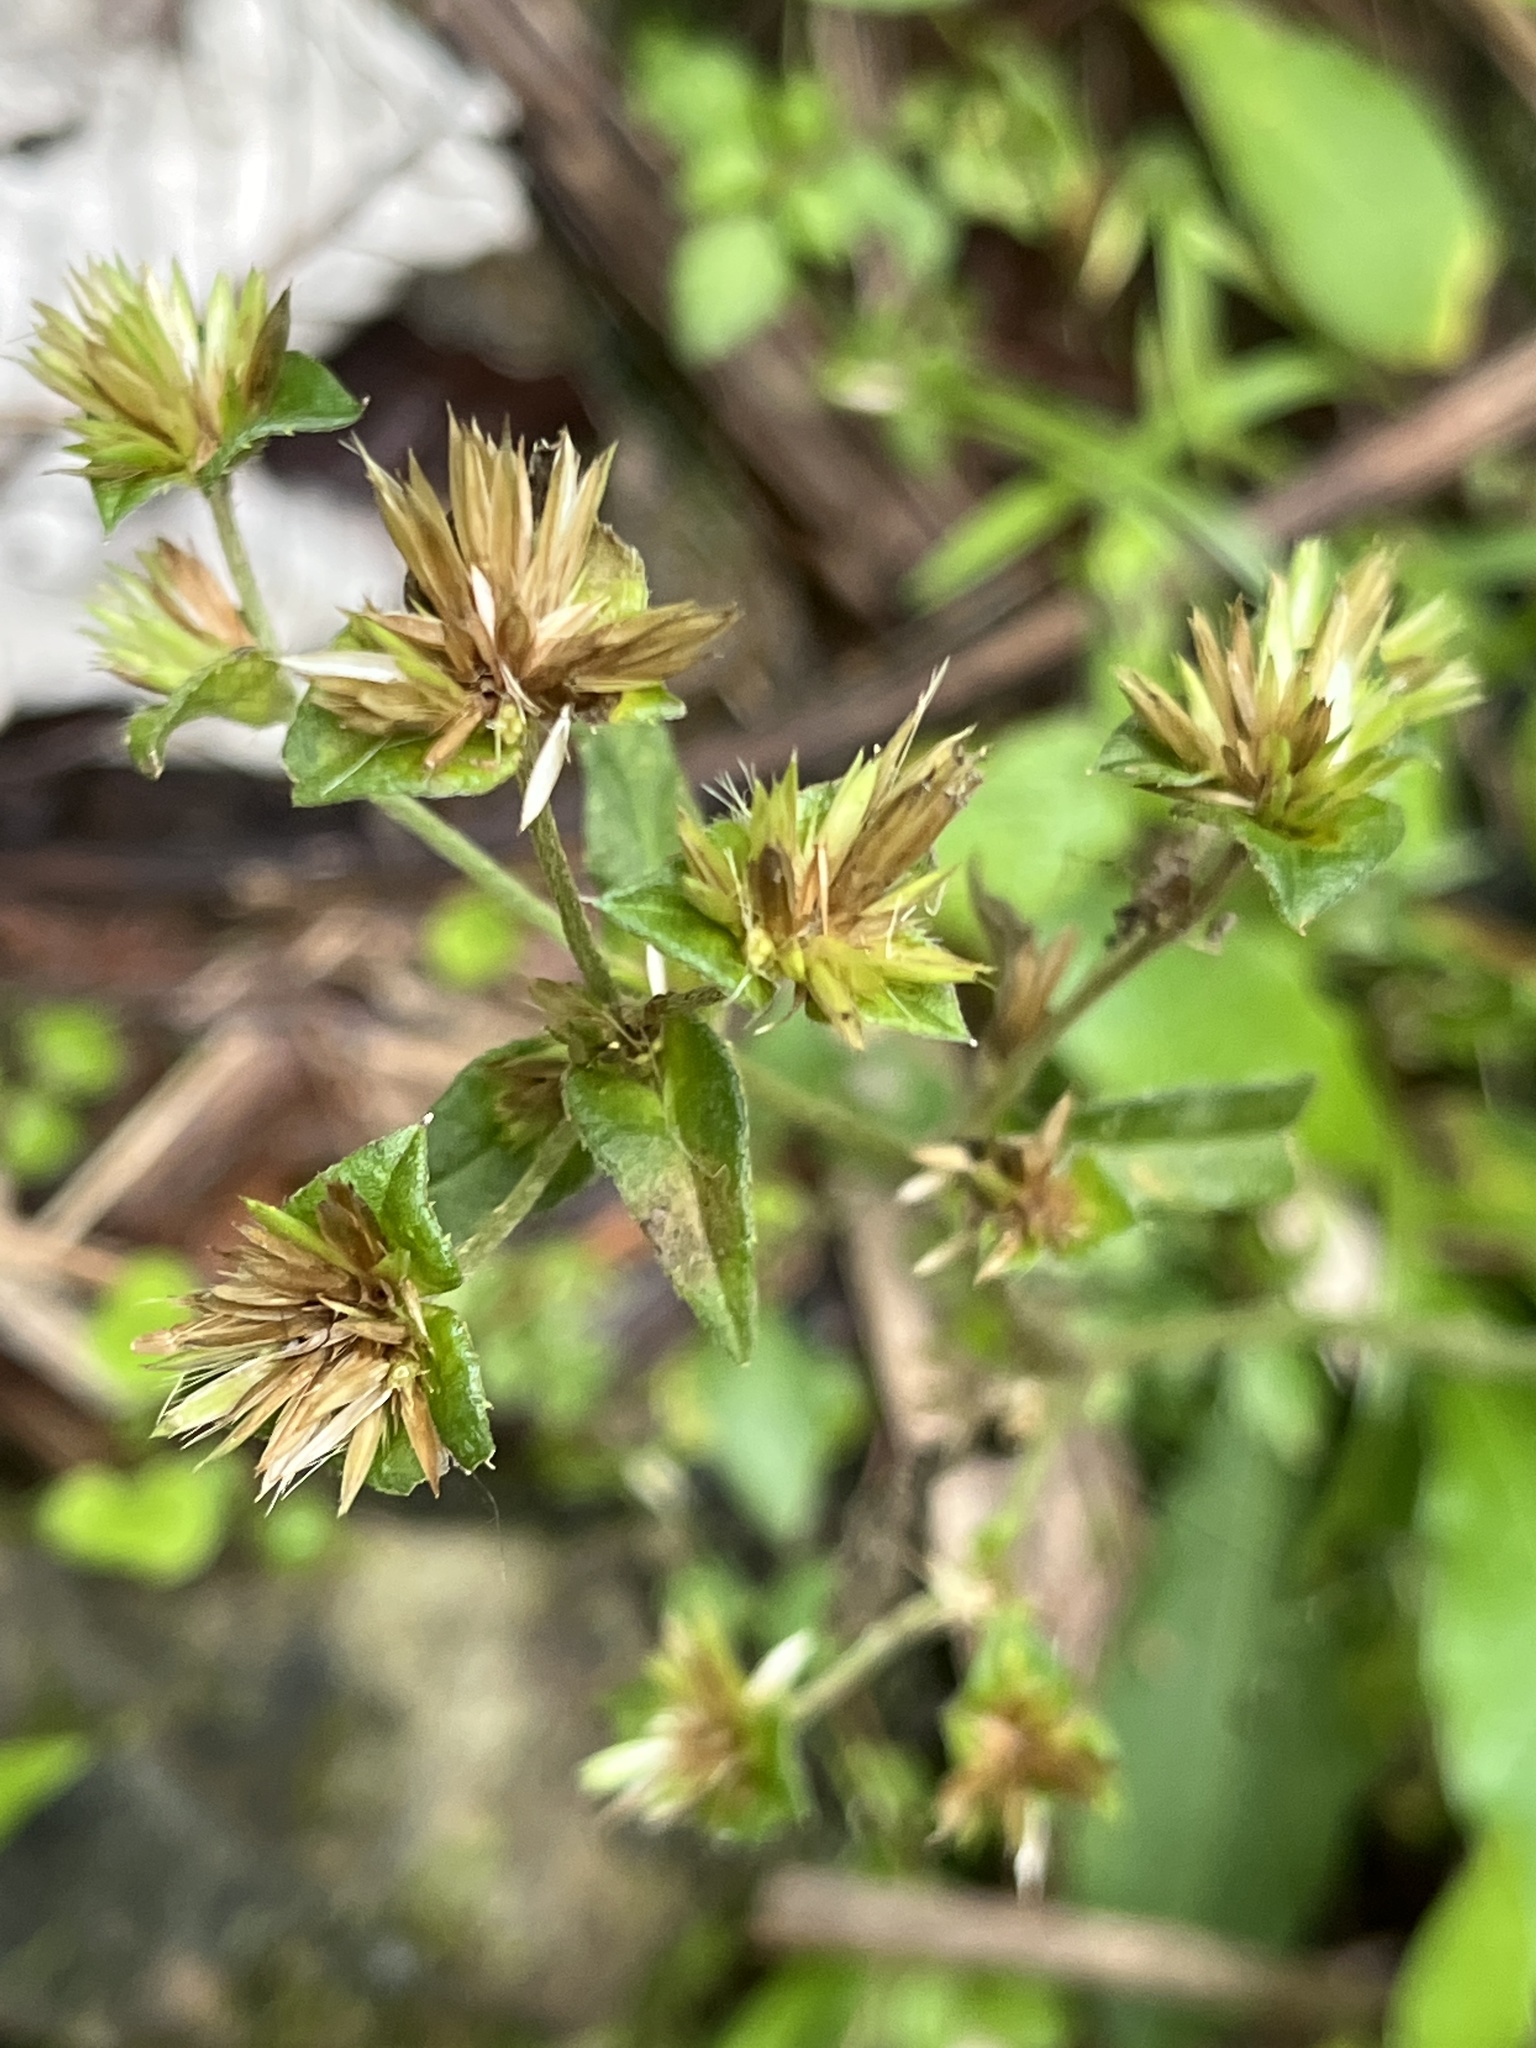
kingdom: Plantae
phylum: Tracheophyta
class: Magnoliopsida
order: Asterales
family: Asteraceae
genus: Elephantopus
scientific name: Elephantopus mollis
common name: Soft elephantsfoot
